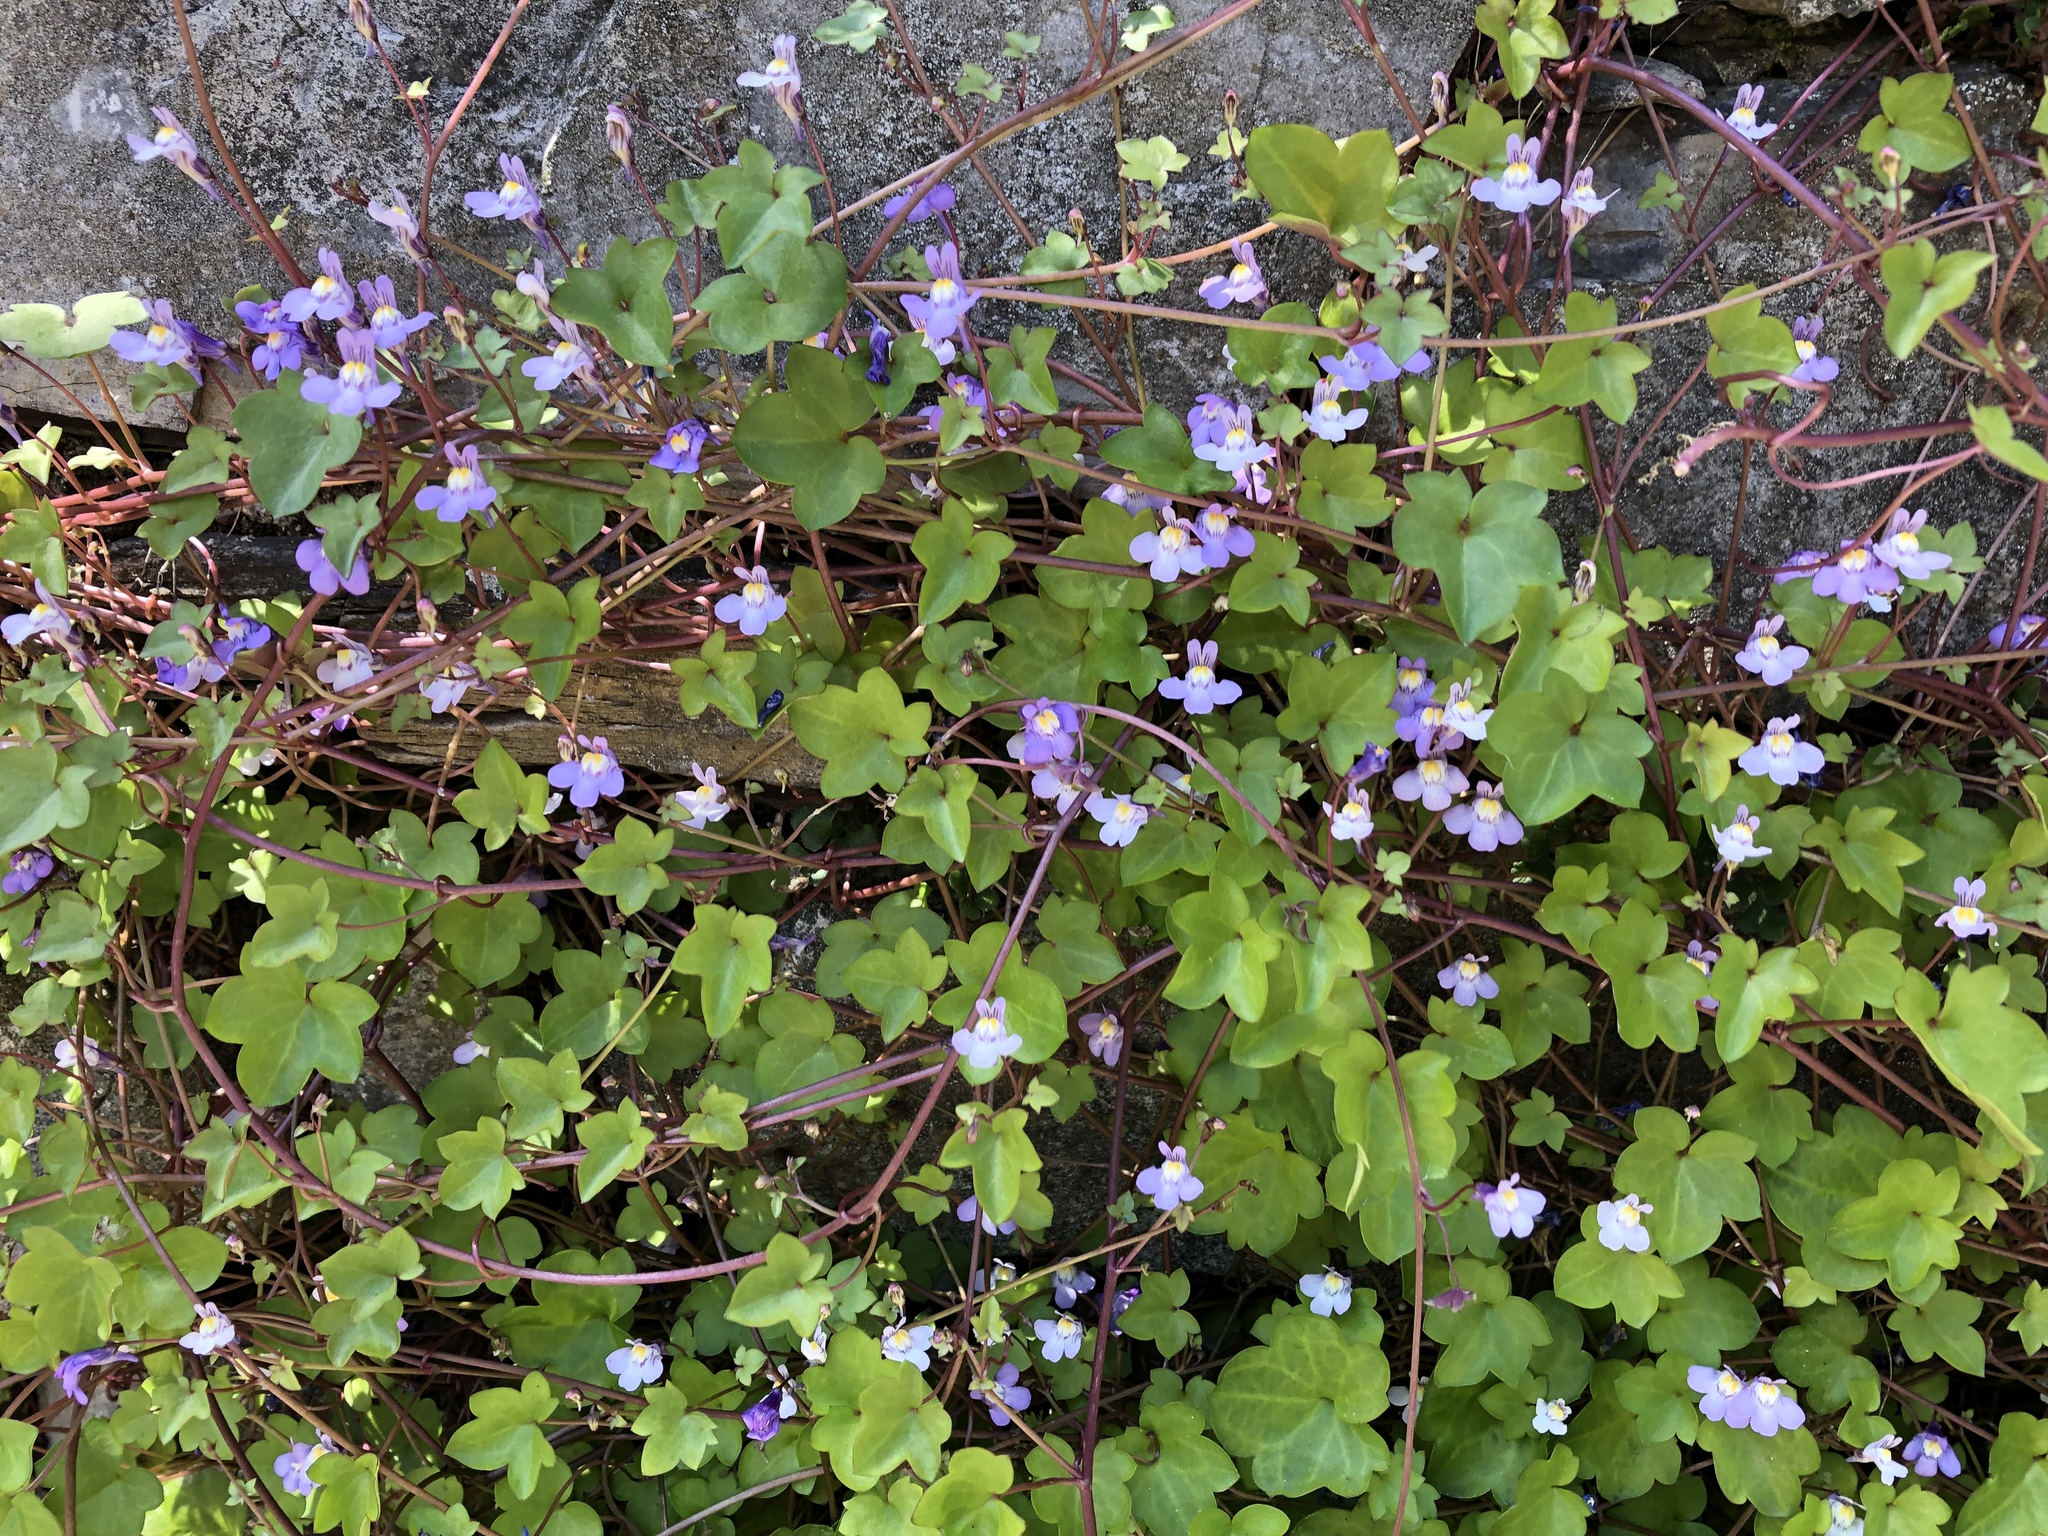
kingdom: Plantae
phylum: Tracheophyta
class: Magnoliopsida
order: Lamiales
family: Plantaginaceae
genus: Cymbalaria
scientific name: Cymbalaria muralis
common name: Ivy-leaved toadflax
